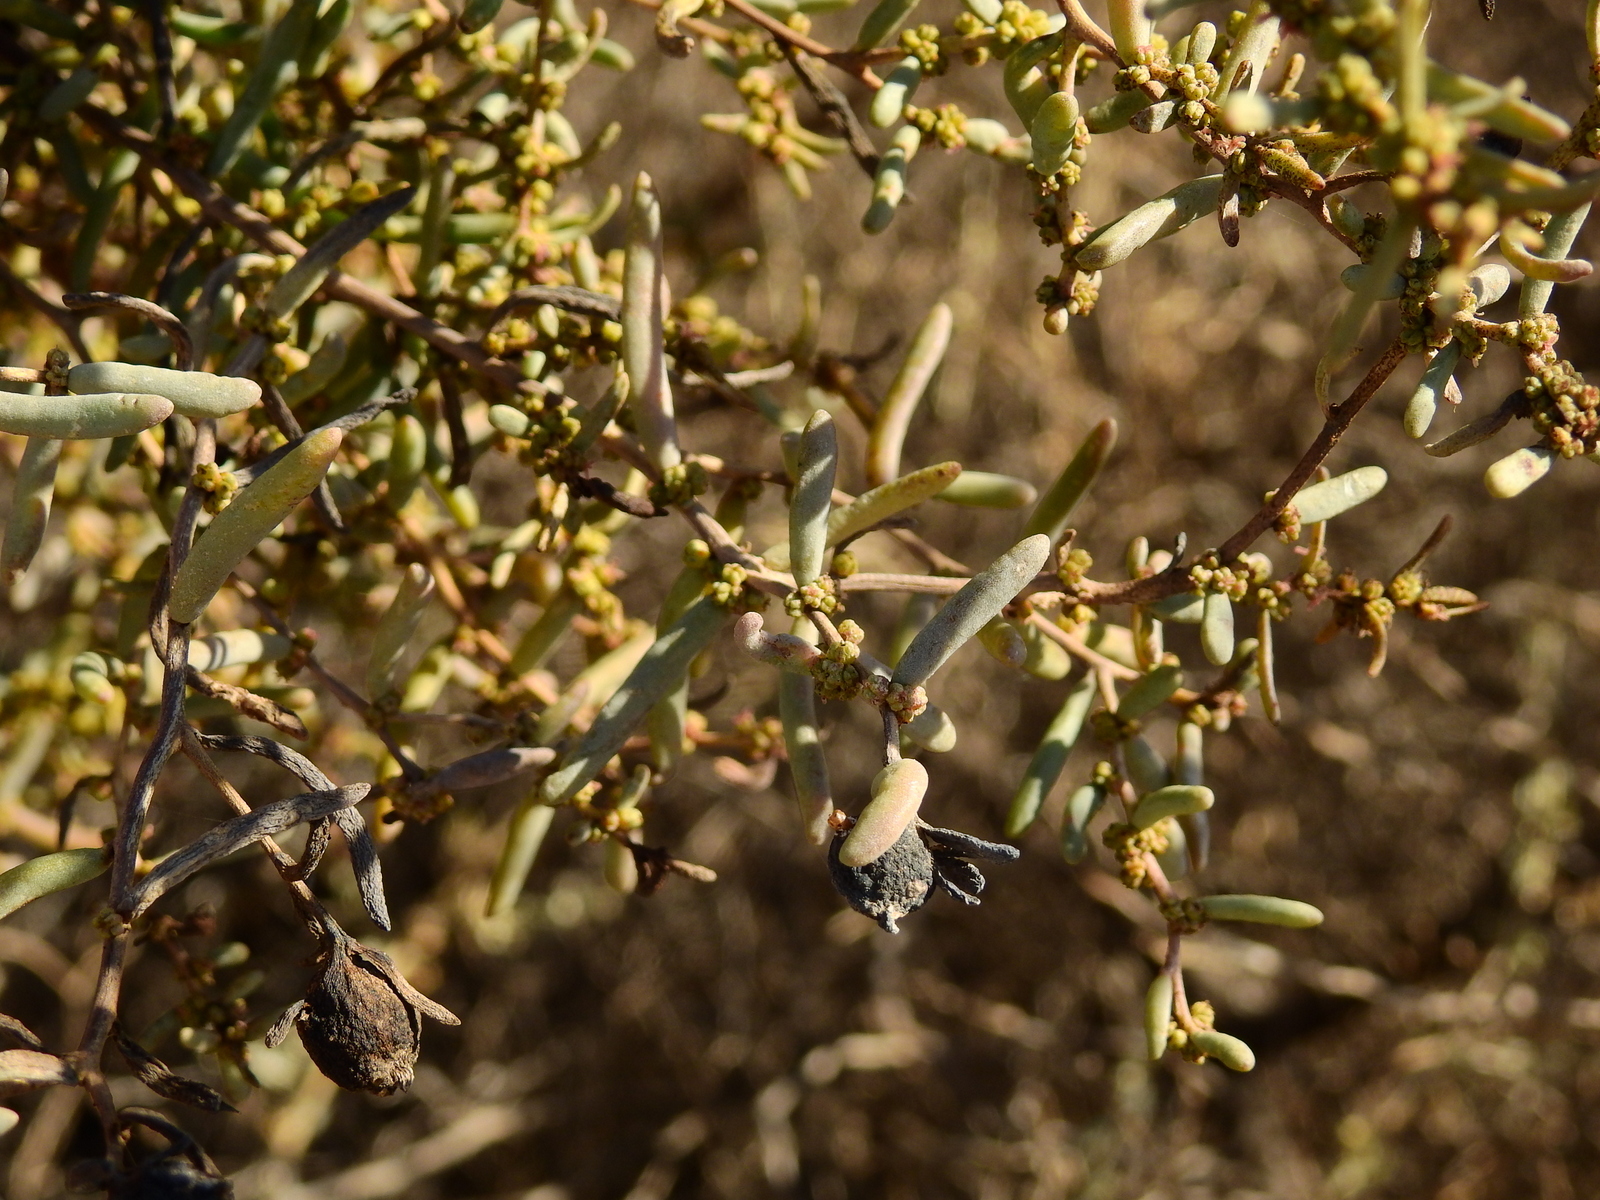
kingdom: Plantae
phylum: Tracheophyta
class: Magnoliopsida
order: Caryophyllales
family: Amaranthaceae
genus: Suaeda
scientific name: Suaeda divaricata
